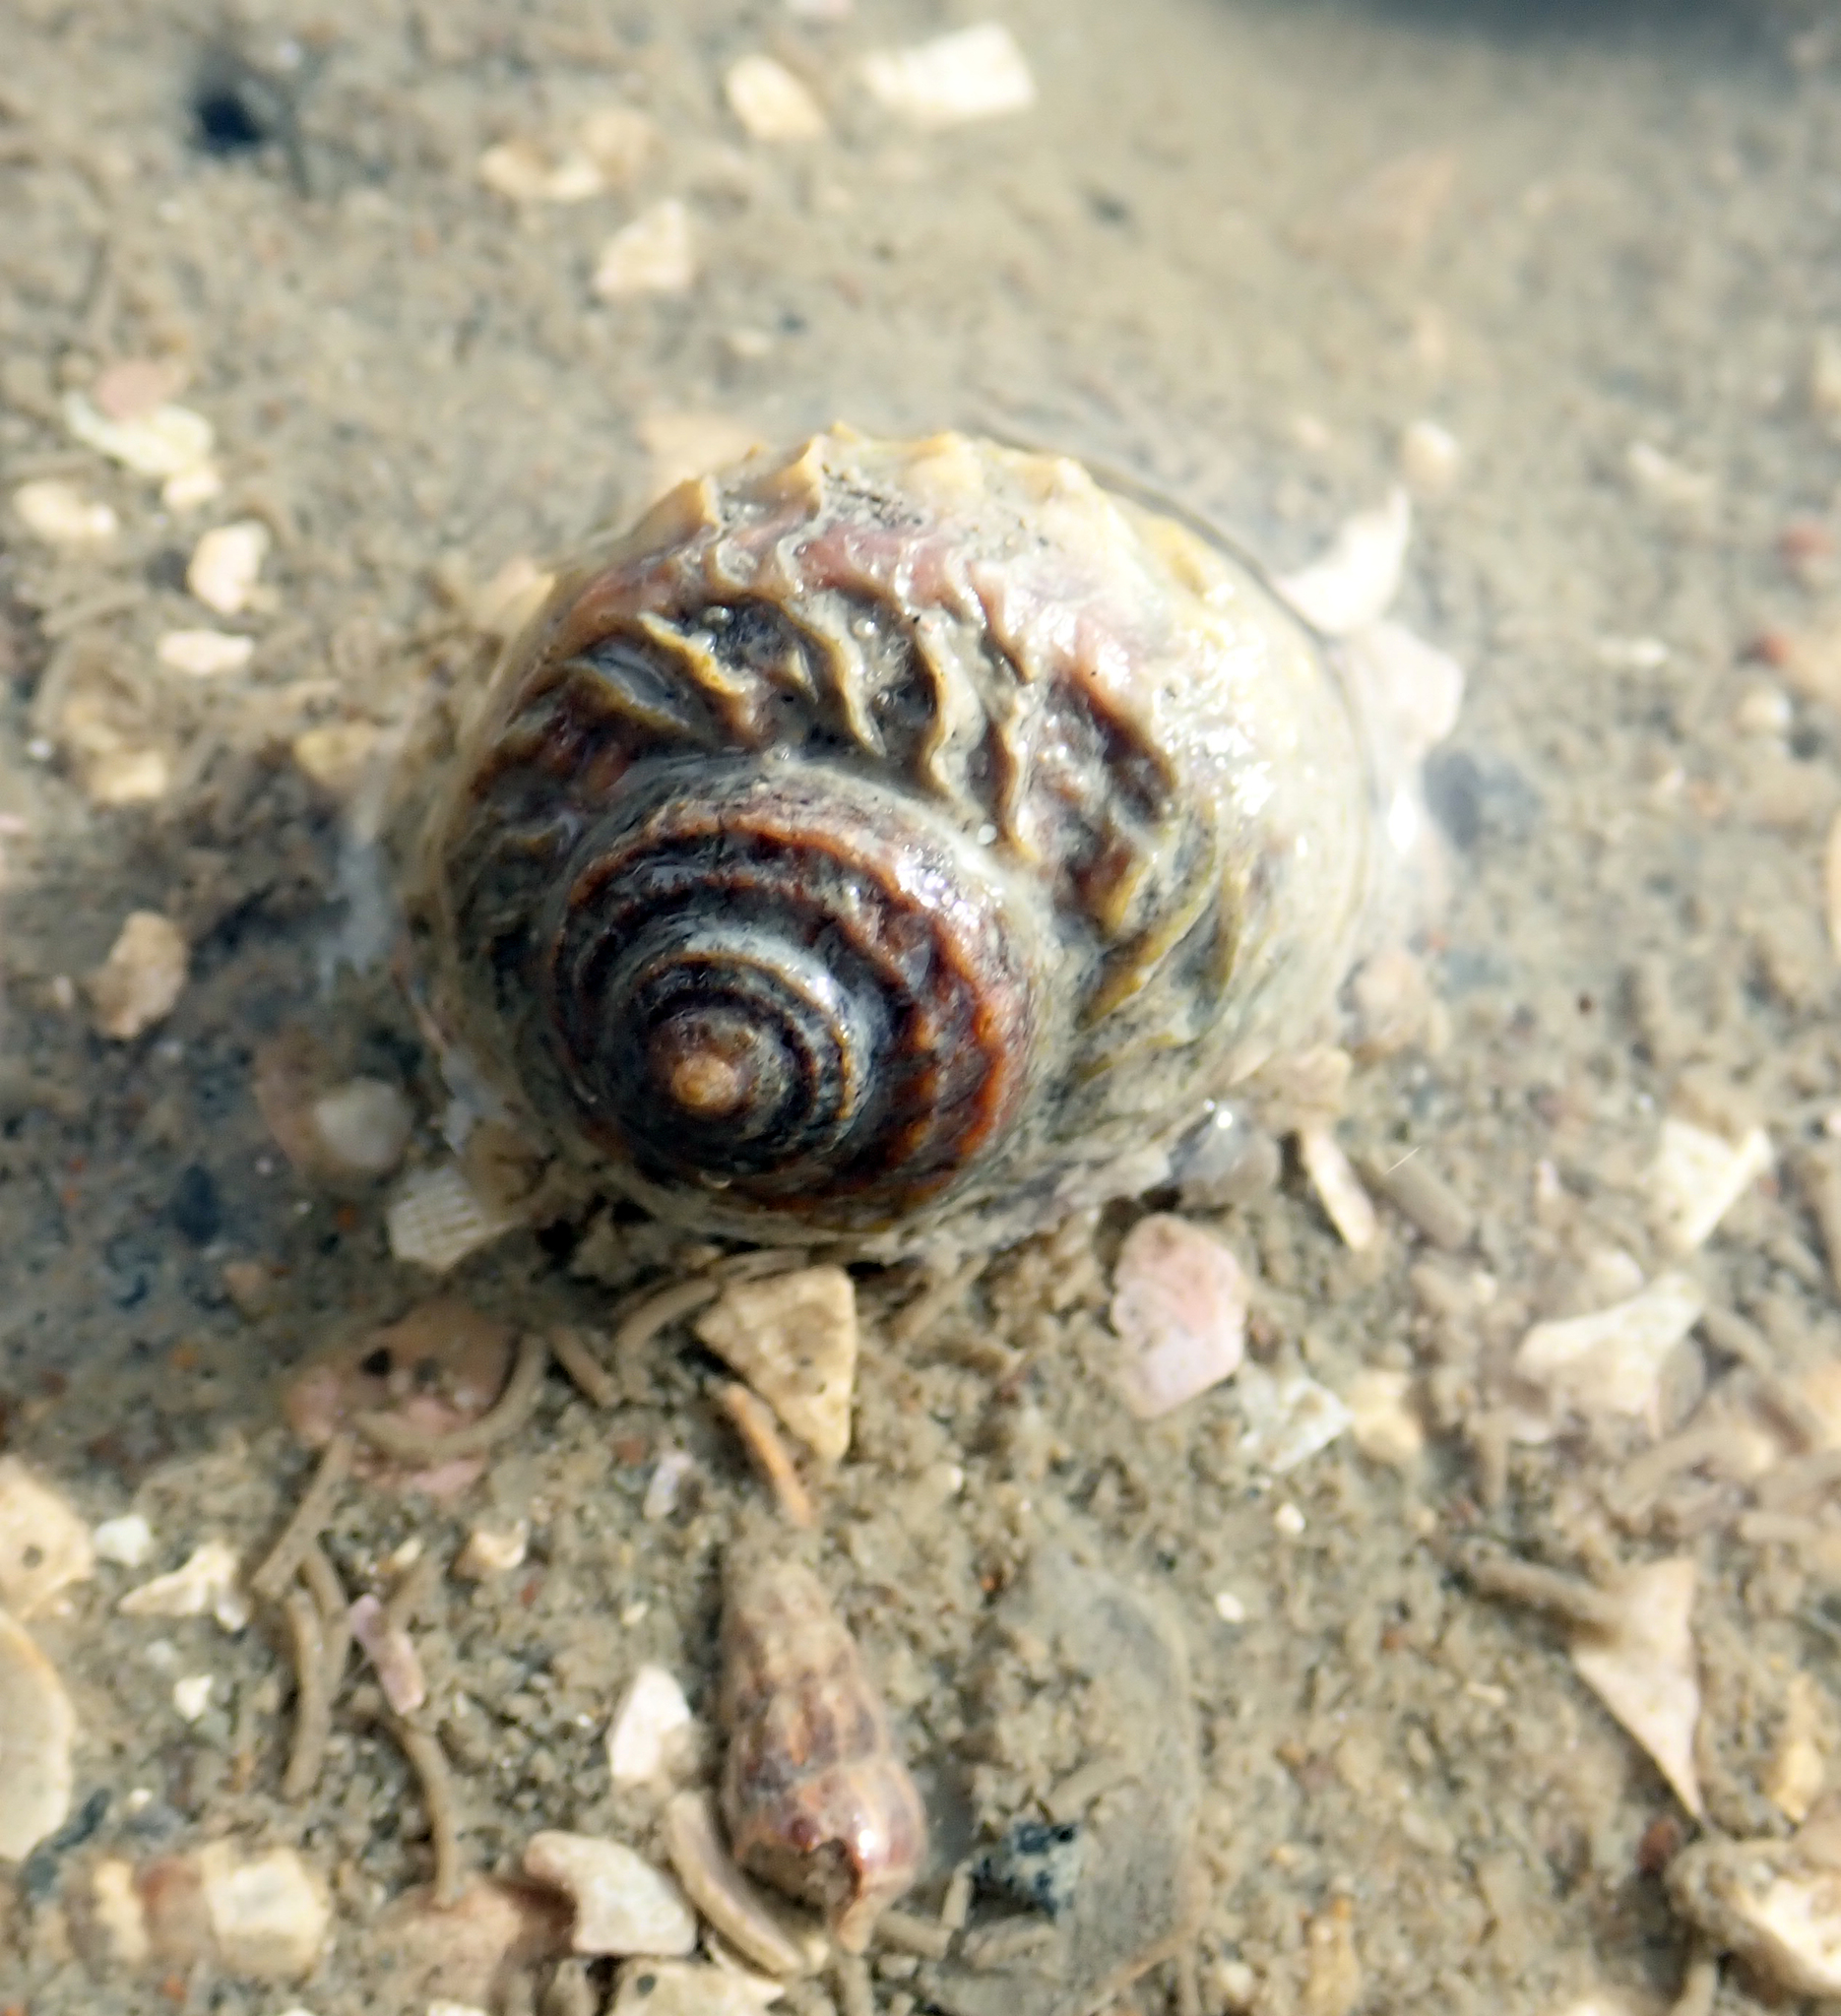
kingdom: Animalia
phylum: Mollusca
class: Gastropoda
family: Amphibolidae
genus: Amphibola
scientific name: Amphibola crenata
